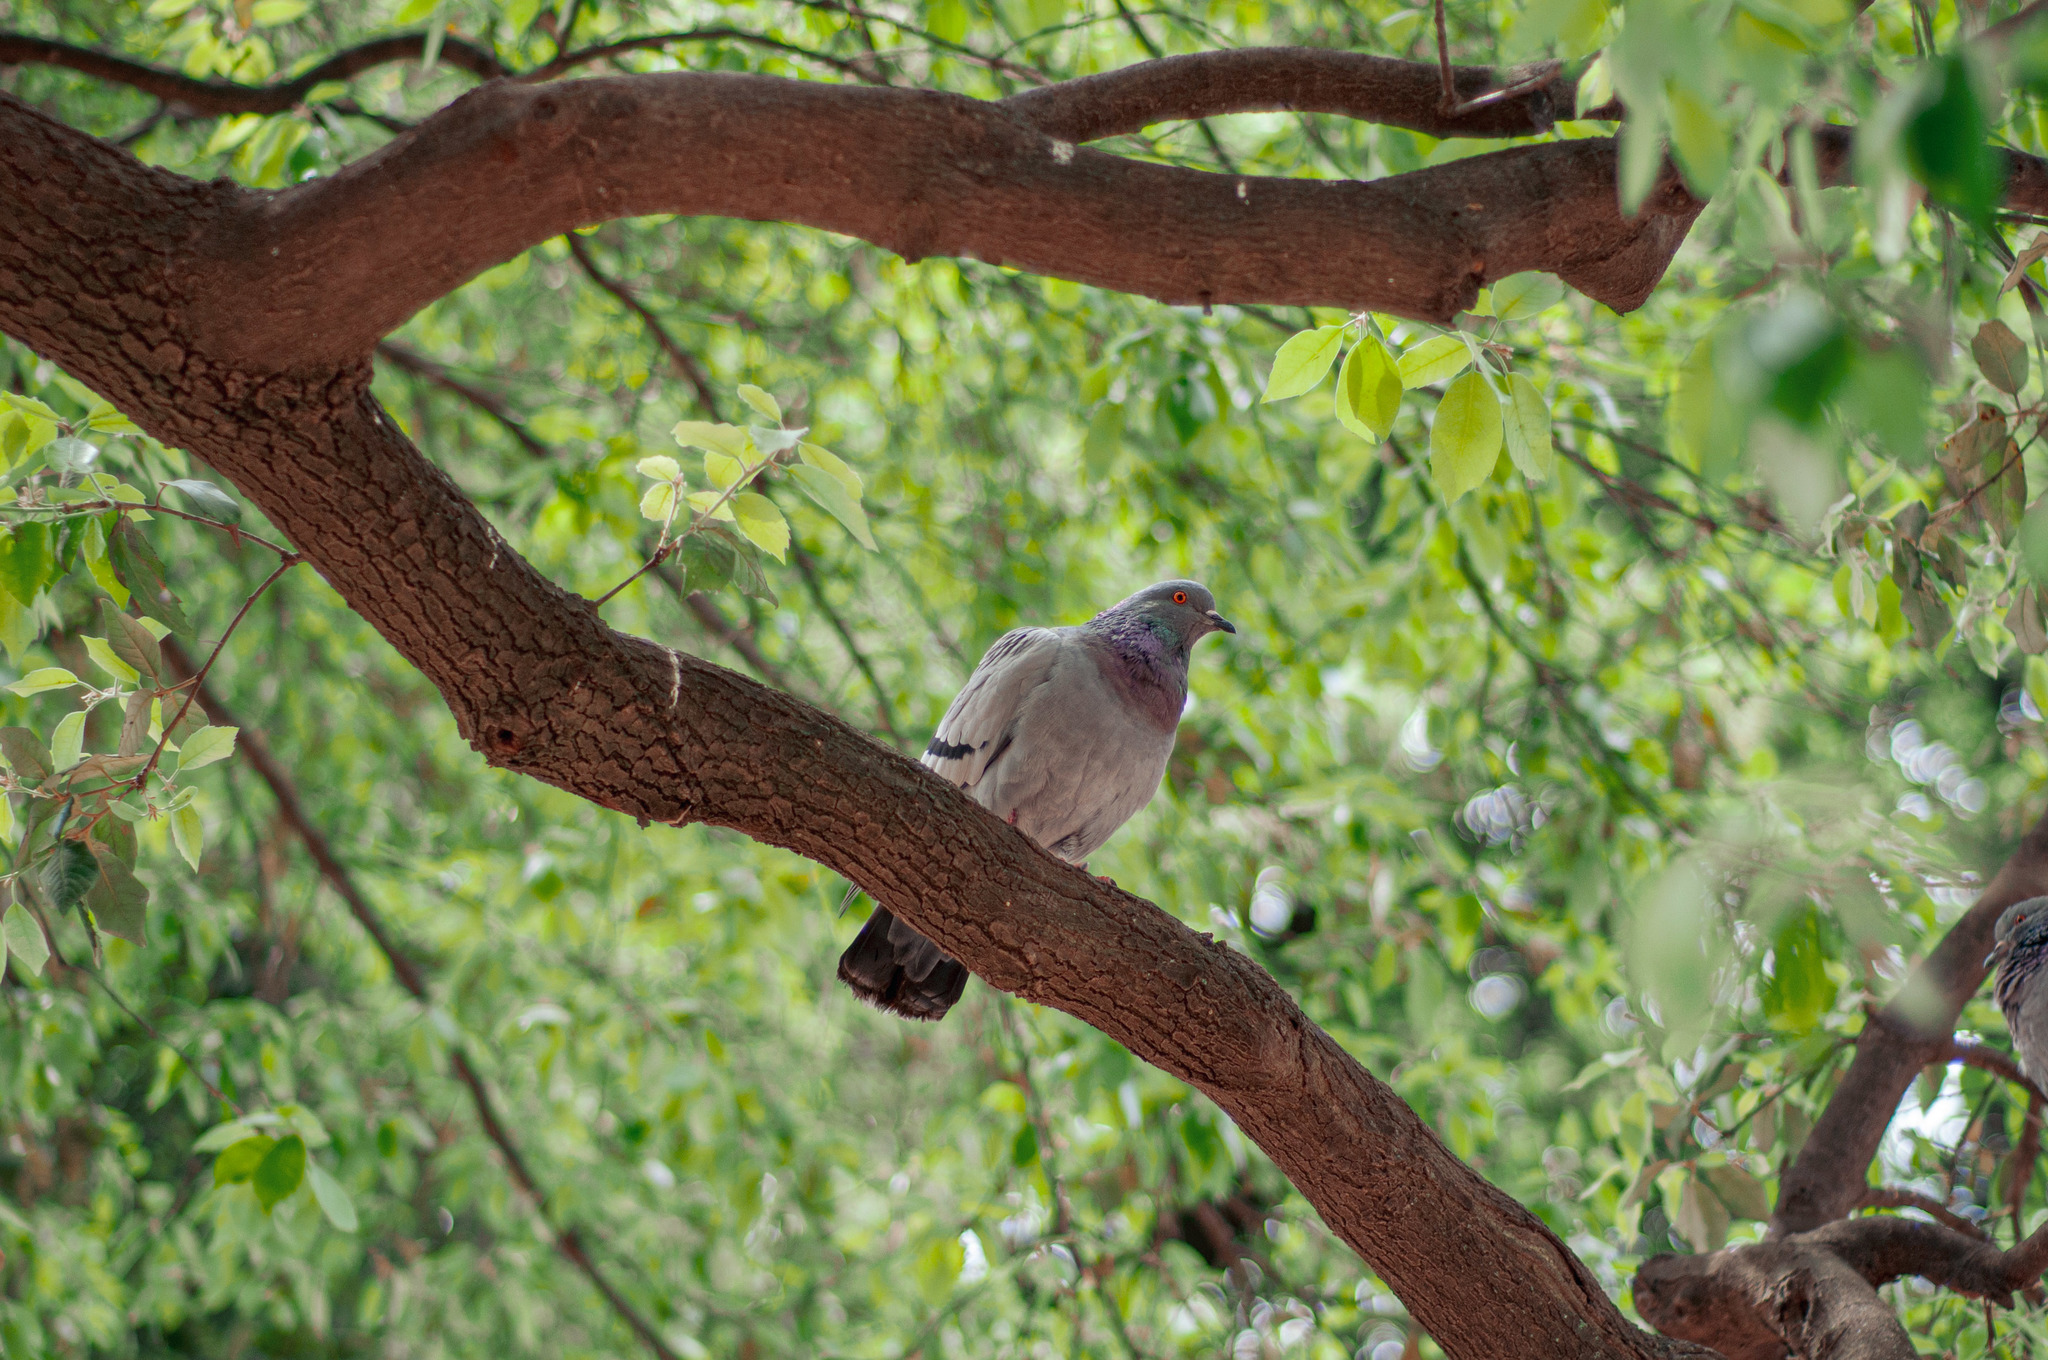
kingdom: Animalia
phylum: Chordata
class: Aves
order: Columbiformes
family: Columbidae
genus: Columba
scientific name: Columba livia
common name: Rock pigeon
